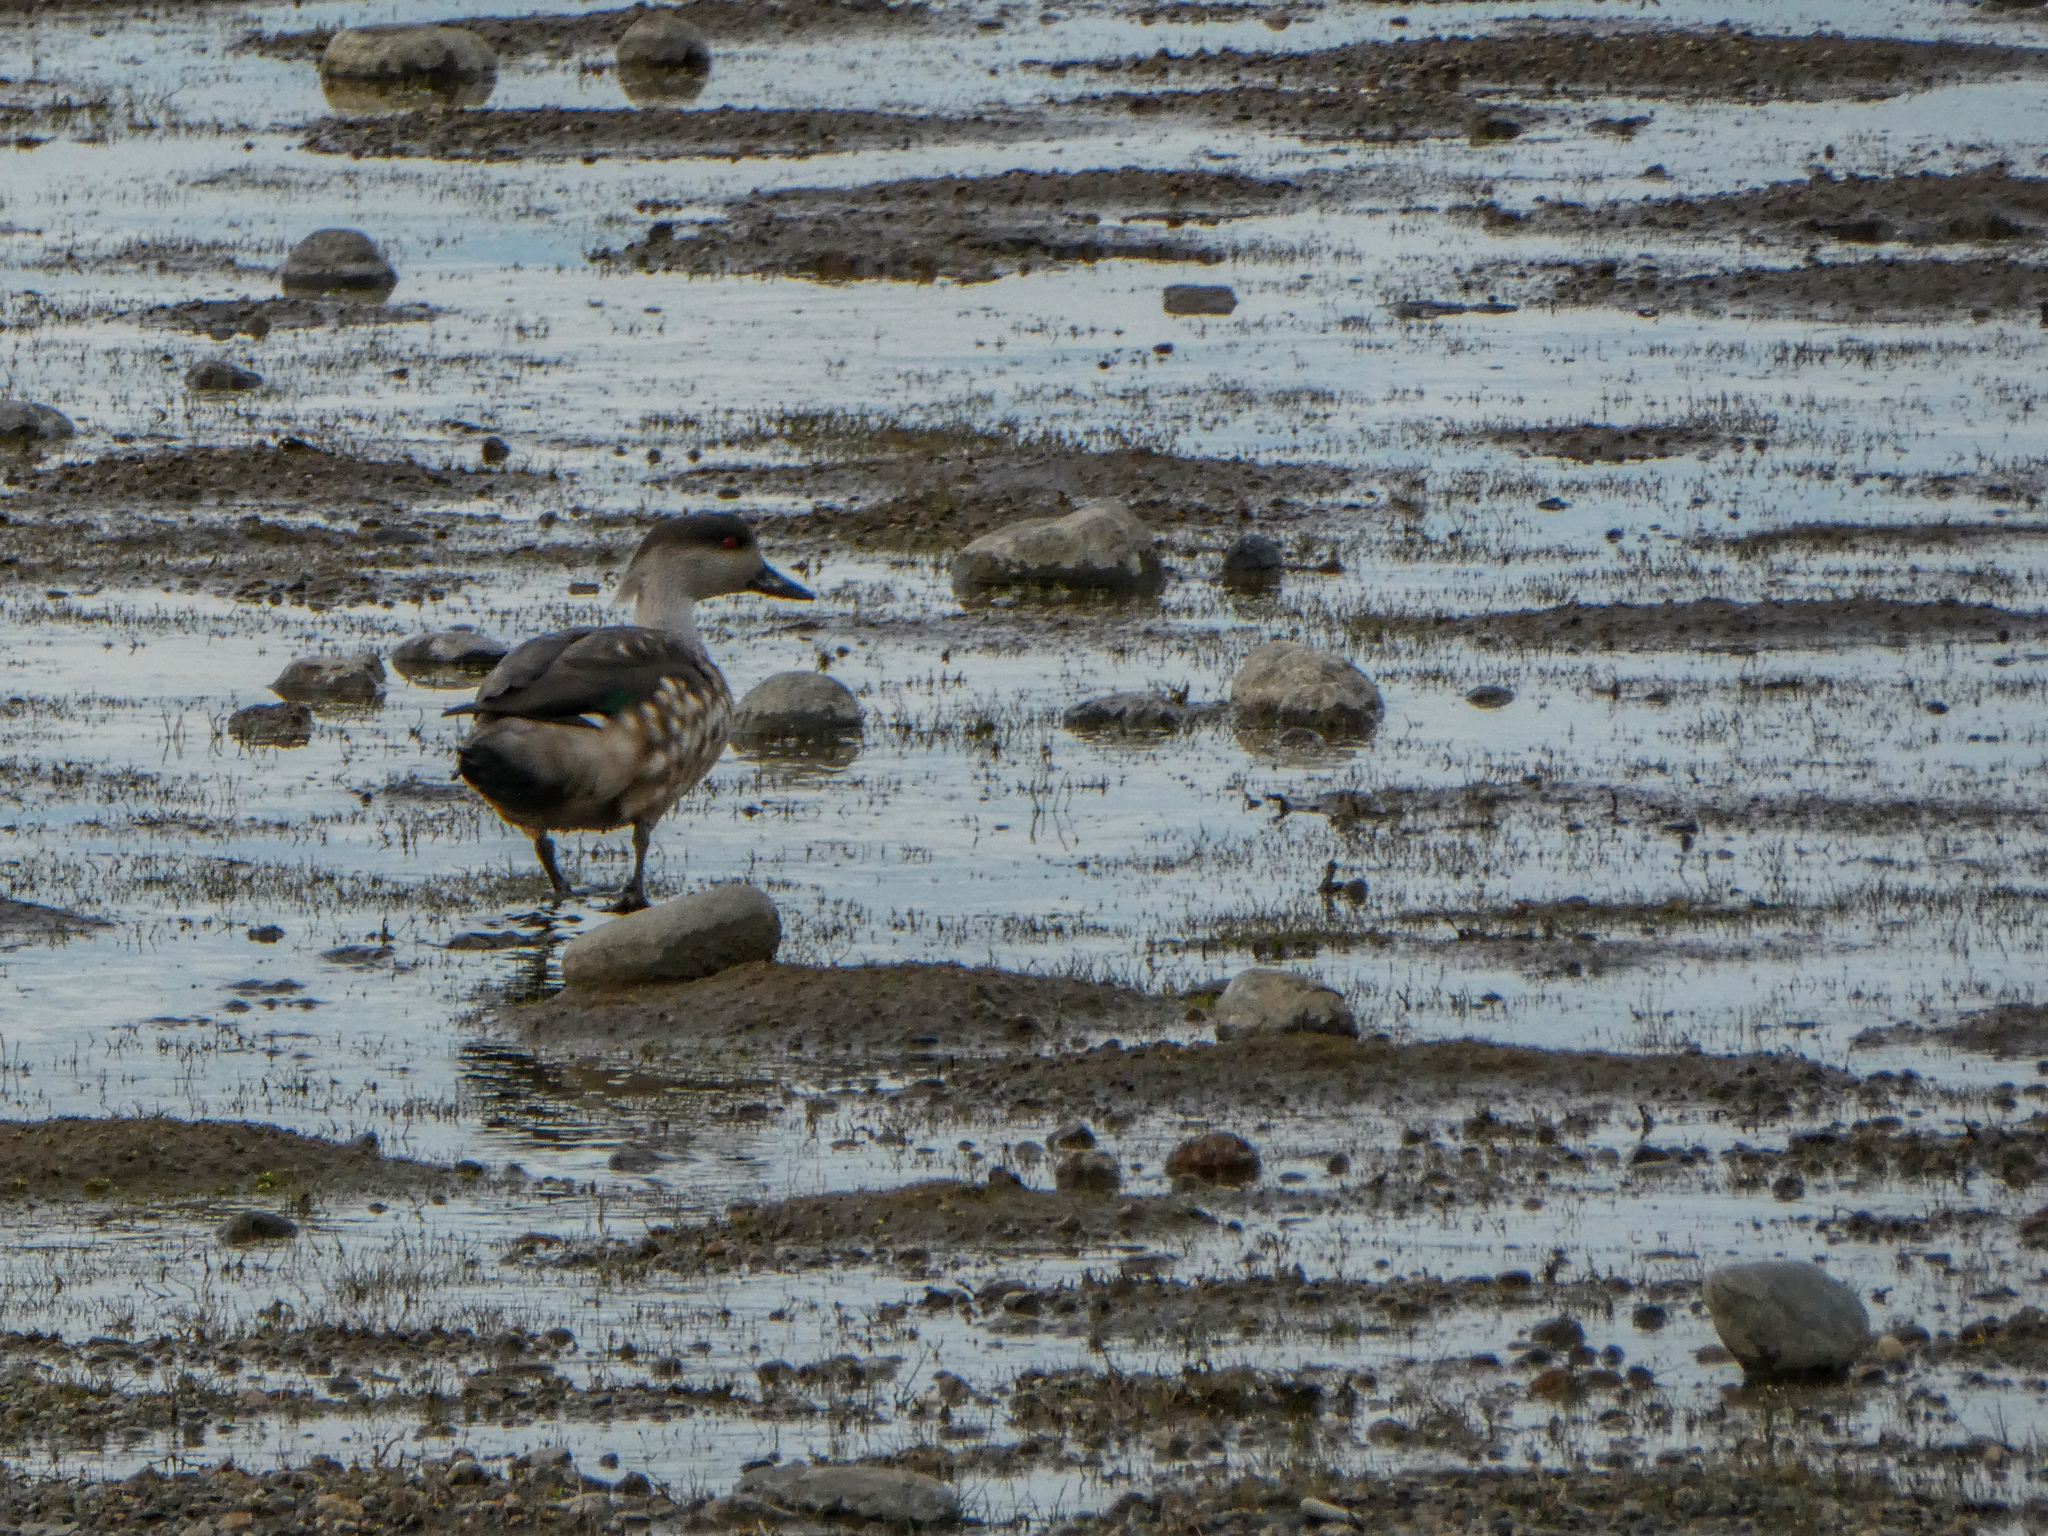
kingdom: Animalia
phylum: Chordata
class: Aves
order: Anseriformes
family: Anatidae
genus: Lophonetta
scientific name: Lophonetta specularioides
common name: Crested duck
